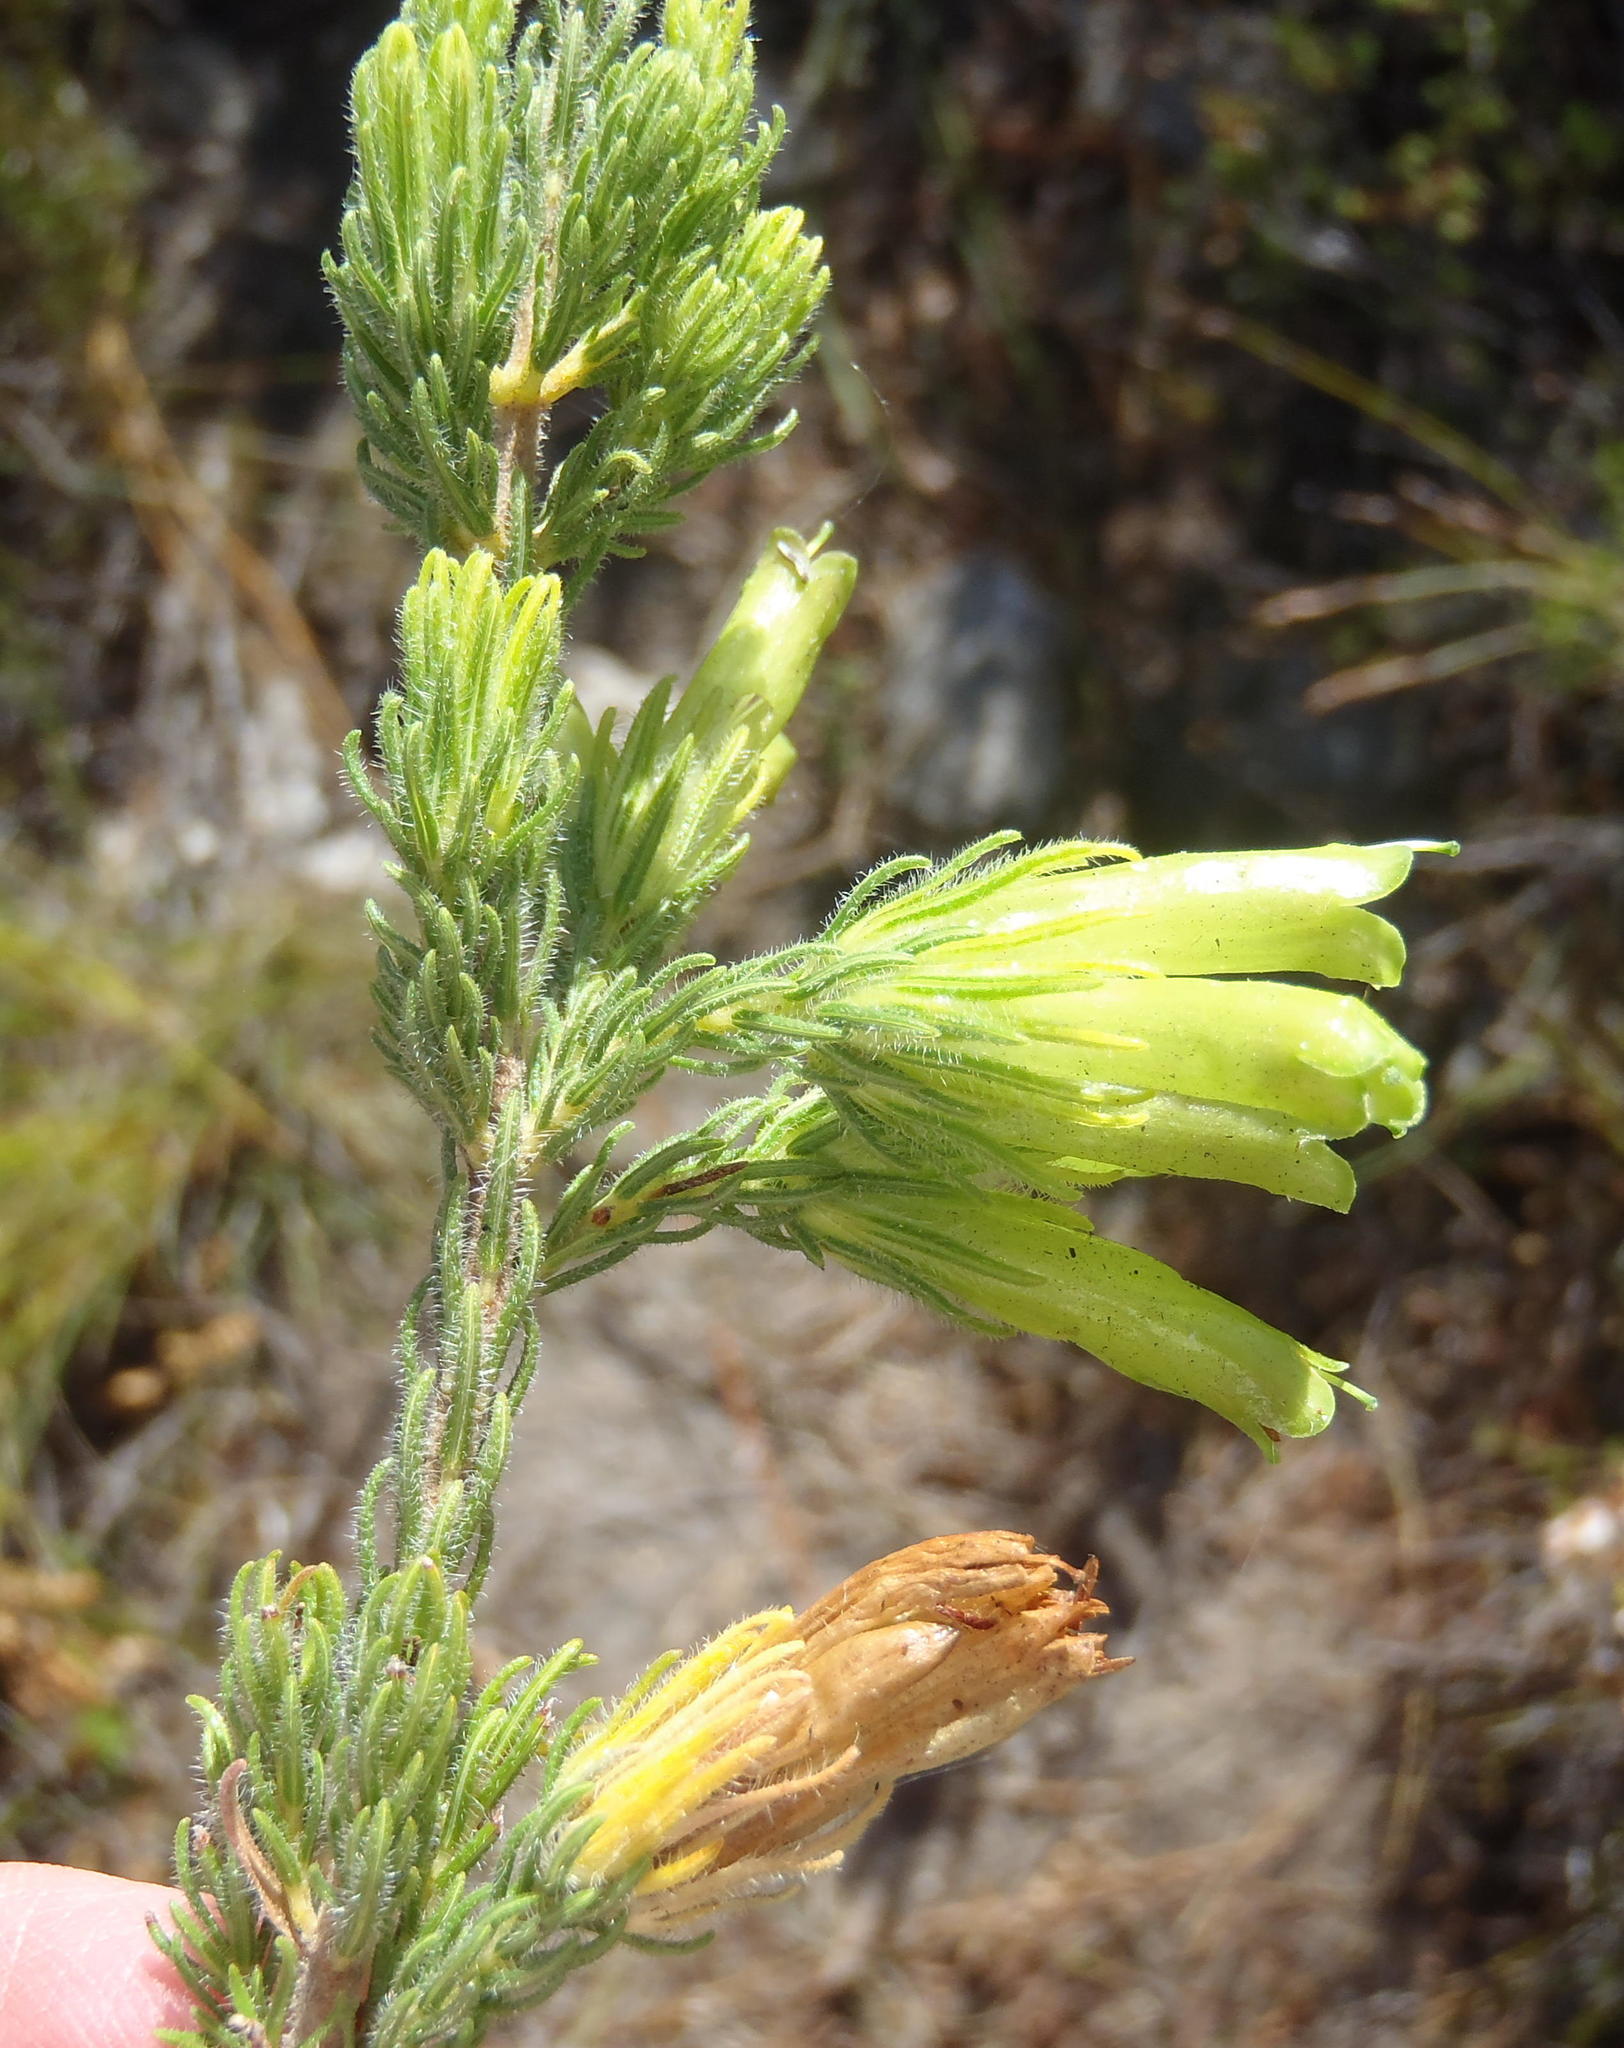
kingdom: Plantae
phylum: Tracheophyta
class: Magnoliopsida
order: Ericales
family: Ericaceae
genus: Erica
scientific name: Erica unicolor
